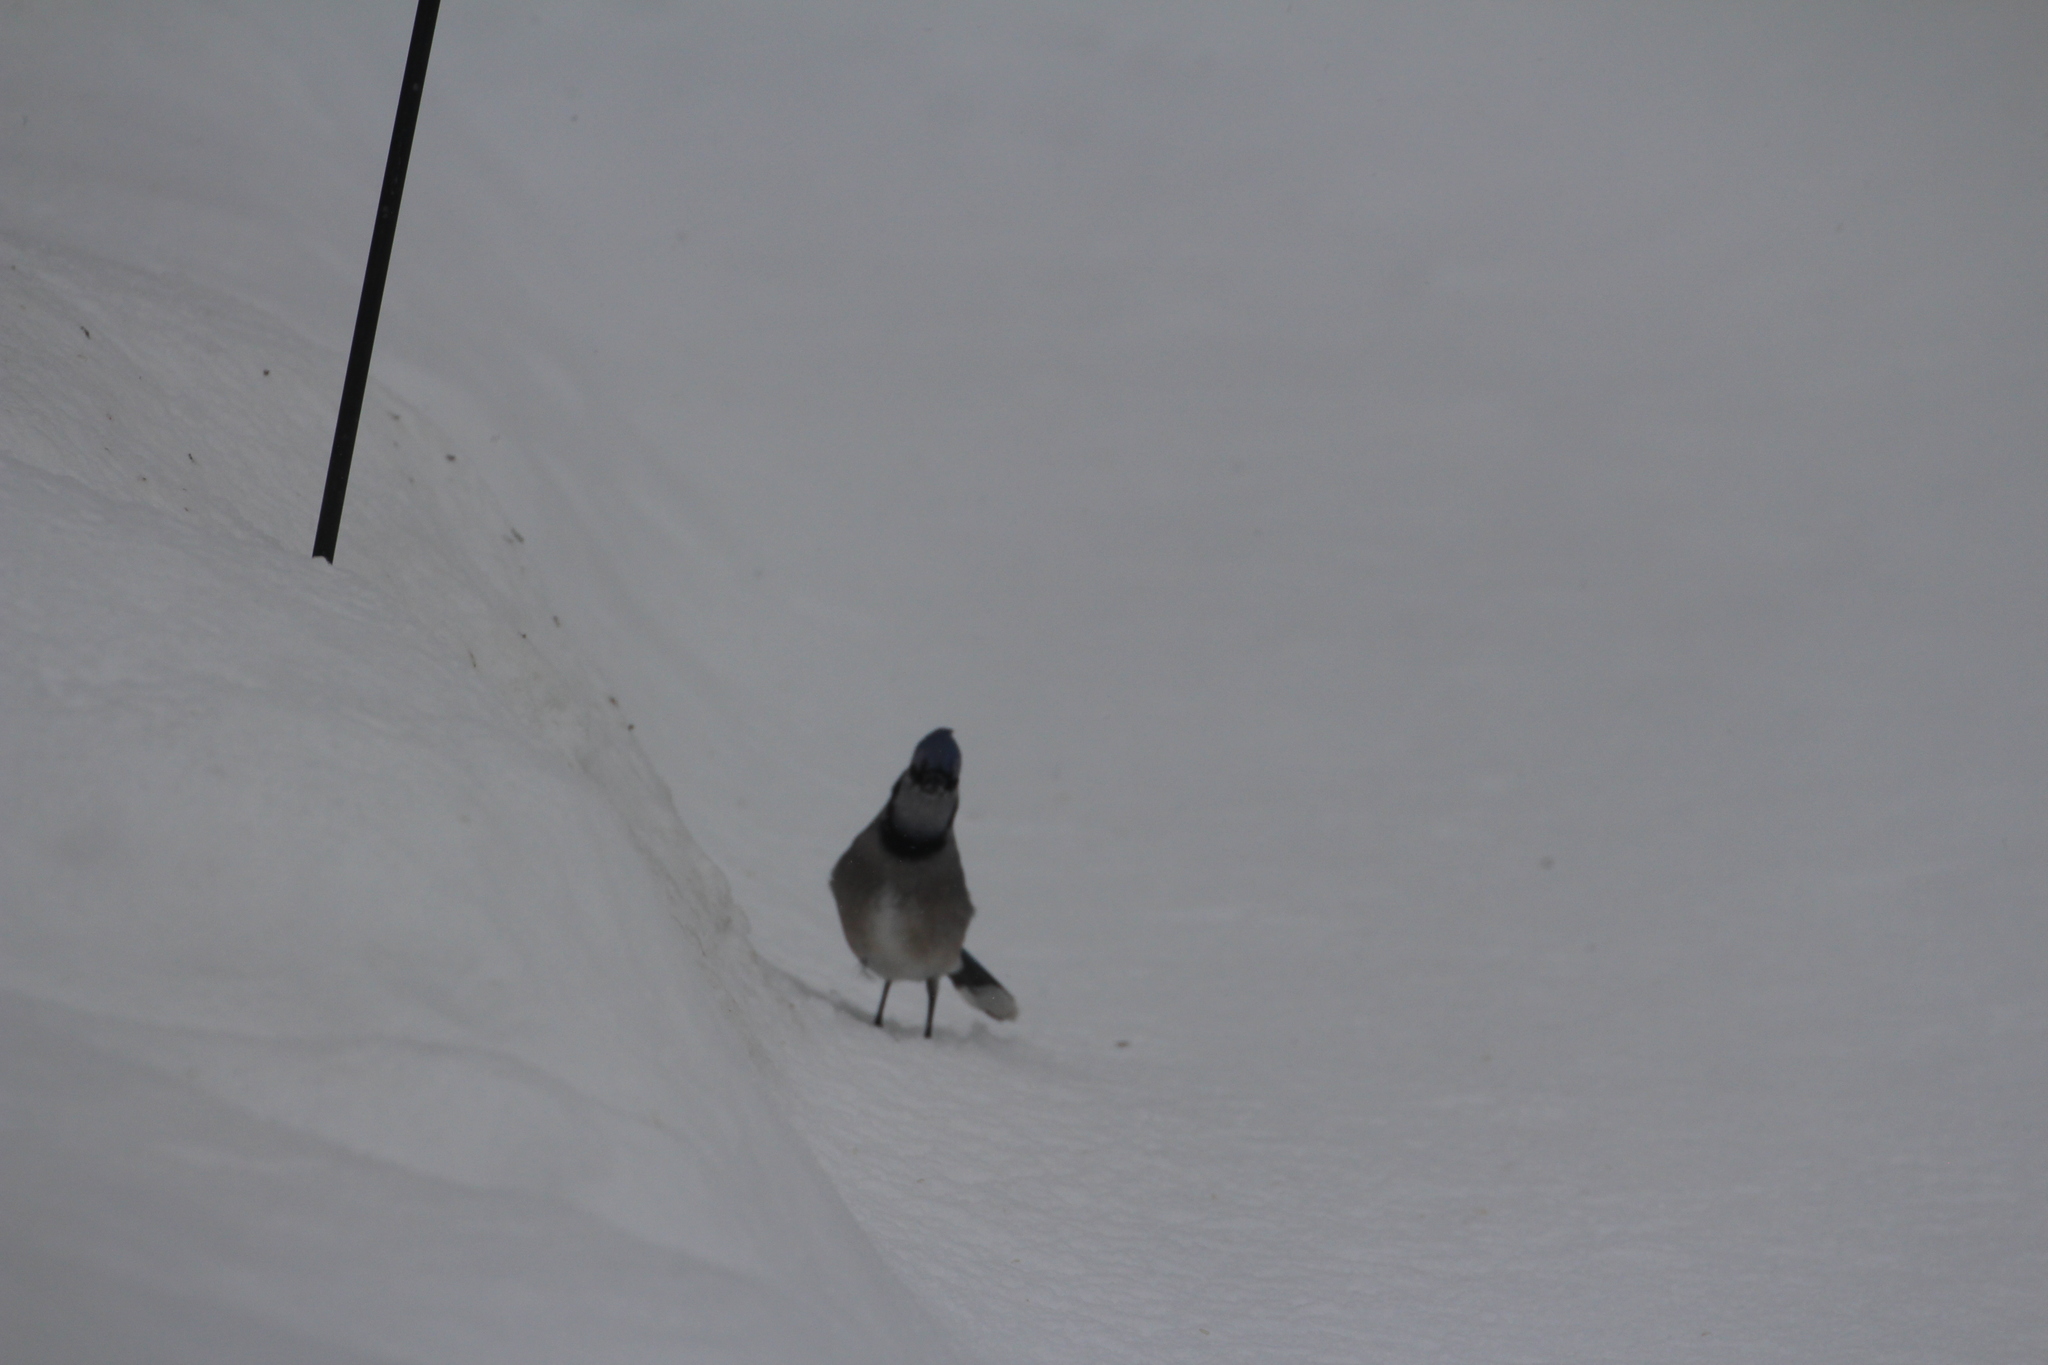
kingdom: Animalia
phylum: Chordata
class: Aves
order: Passeriformes
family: Corvidae
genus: Cyanocitta
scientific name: Cyanocitta cristata
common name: Blue jay
